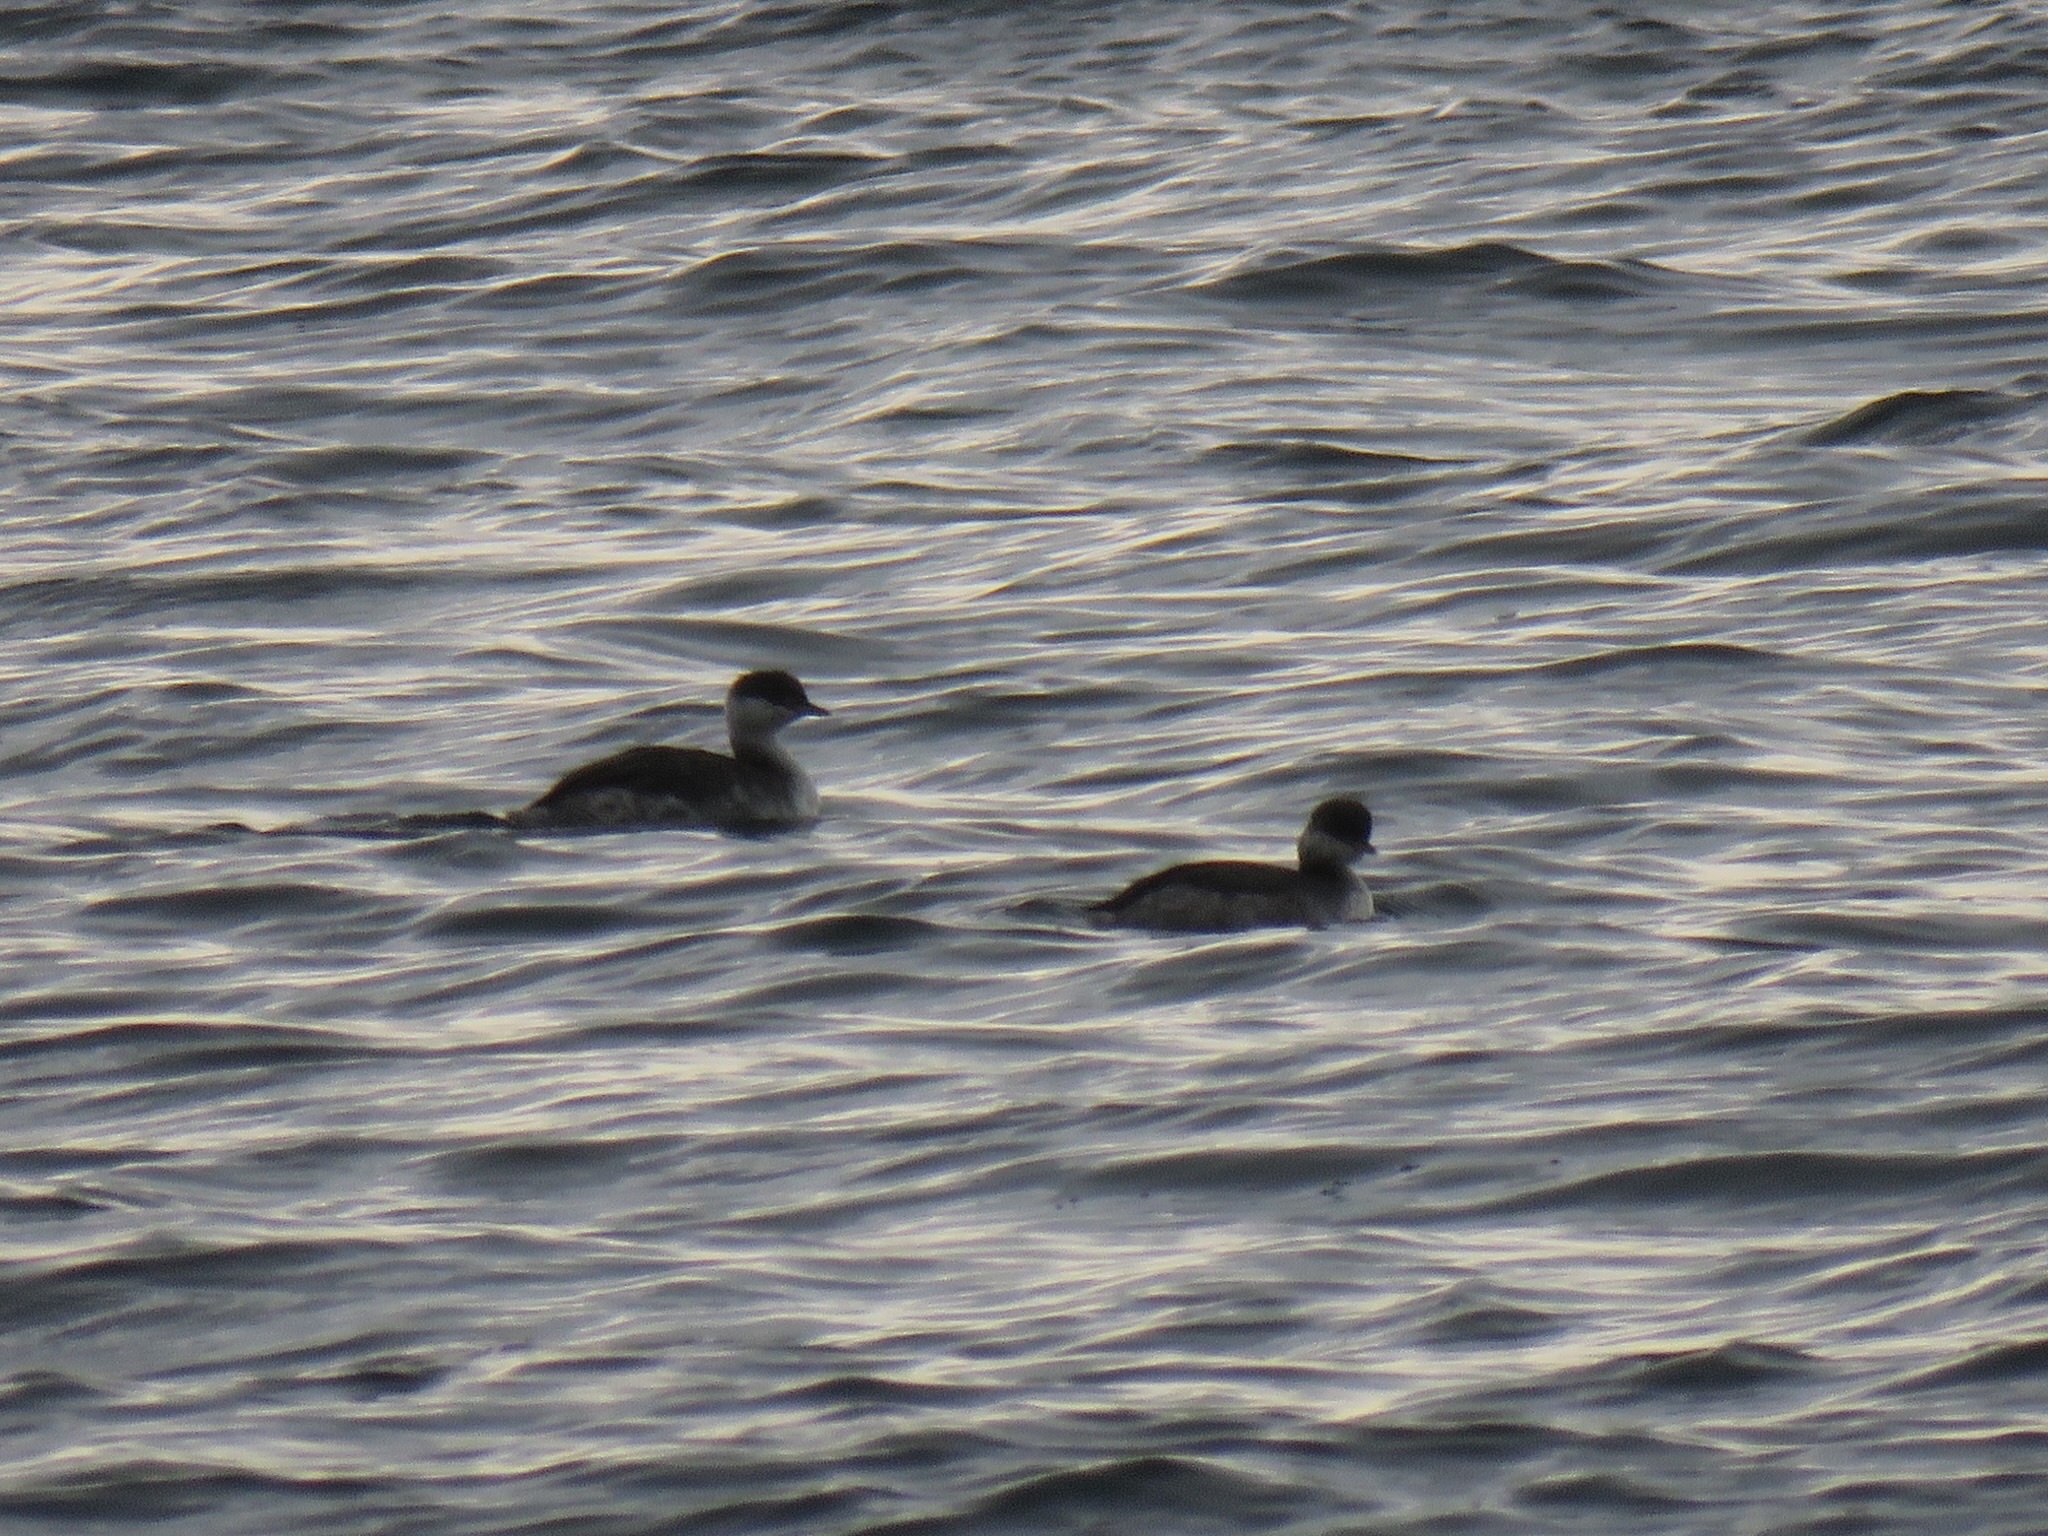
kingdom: Animalia
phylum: Chordata
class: Aves
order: Podicipediformes
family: Podicipedidae
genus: Podiceps
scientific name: Podiceps auritus
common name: Horned grebe
